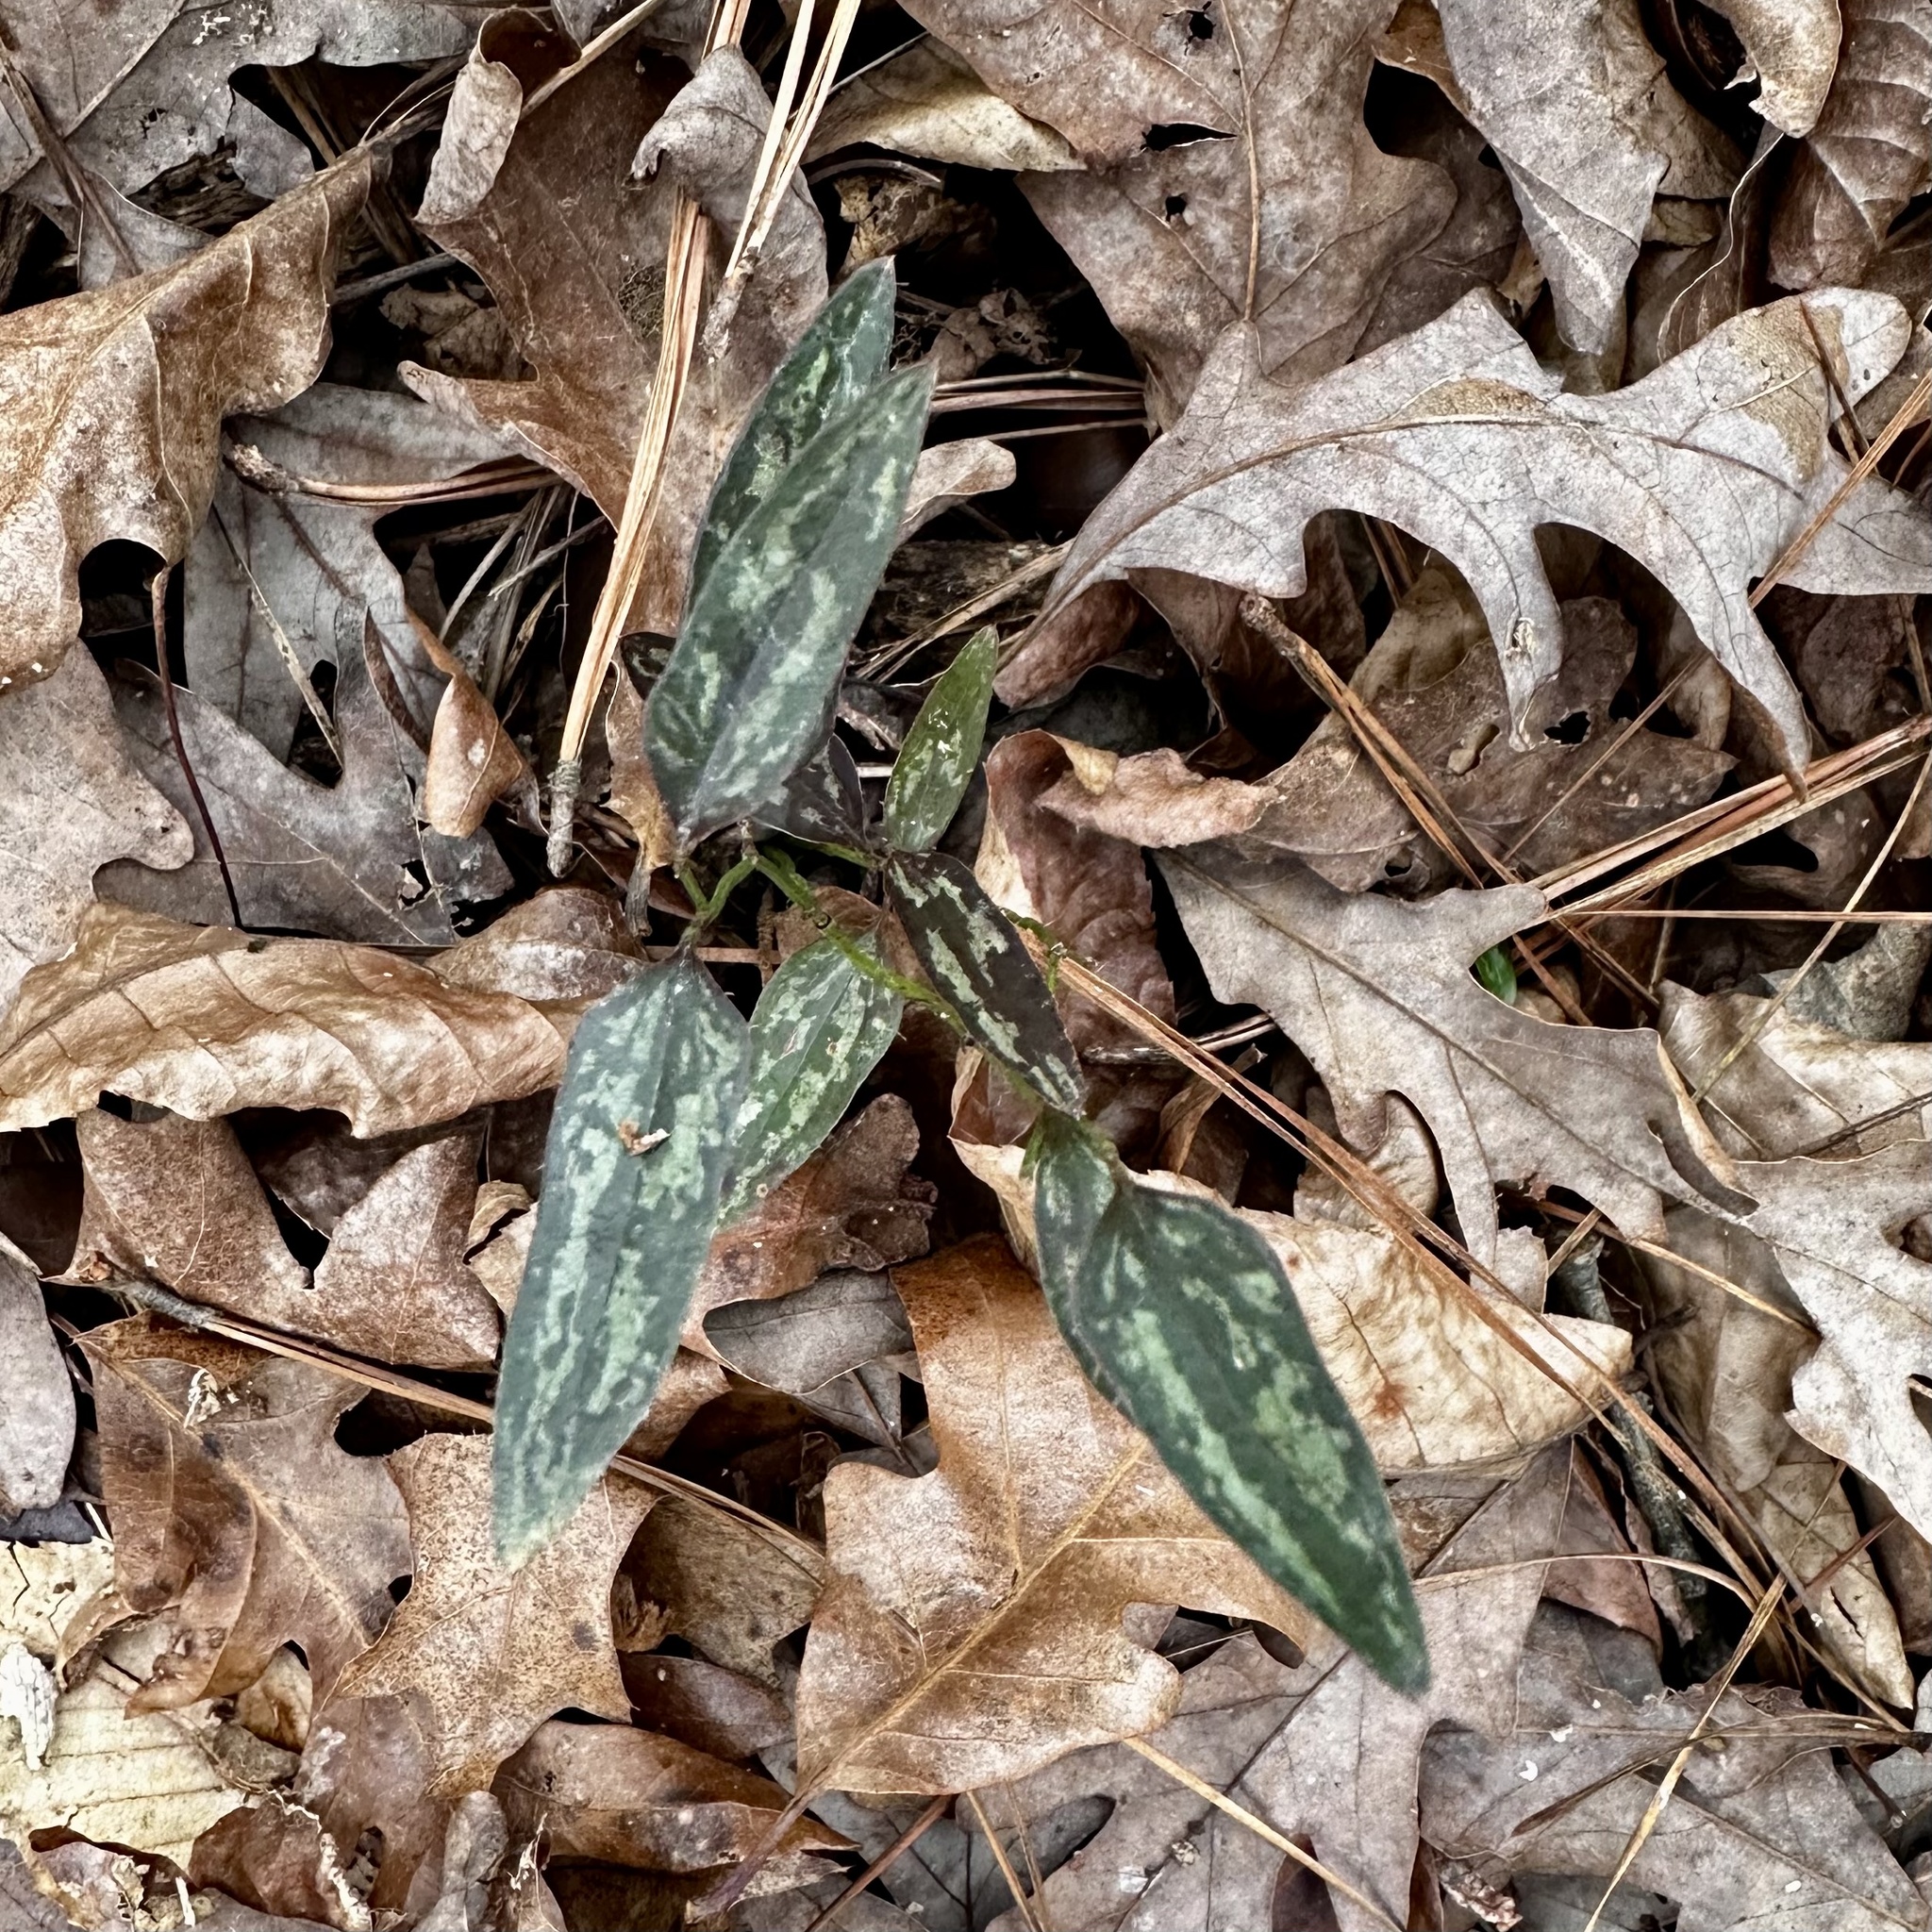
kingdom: Plantae
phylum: Tracheophyta
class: Liliopsida
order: Liliales
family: Smilacaceae
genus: Smilax
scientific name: Smilax bona-nox
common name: Catbrier
